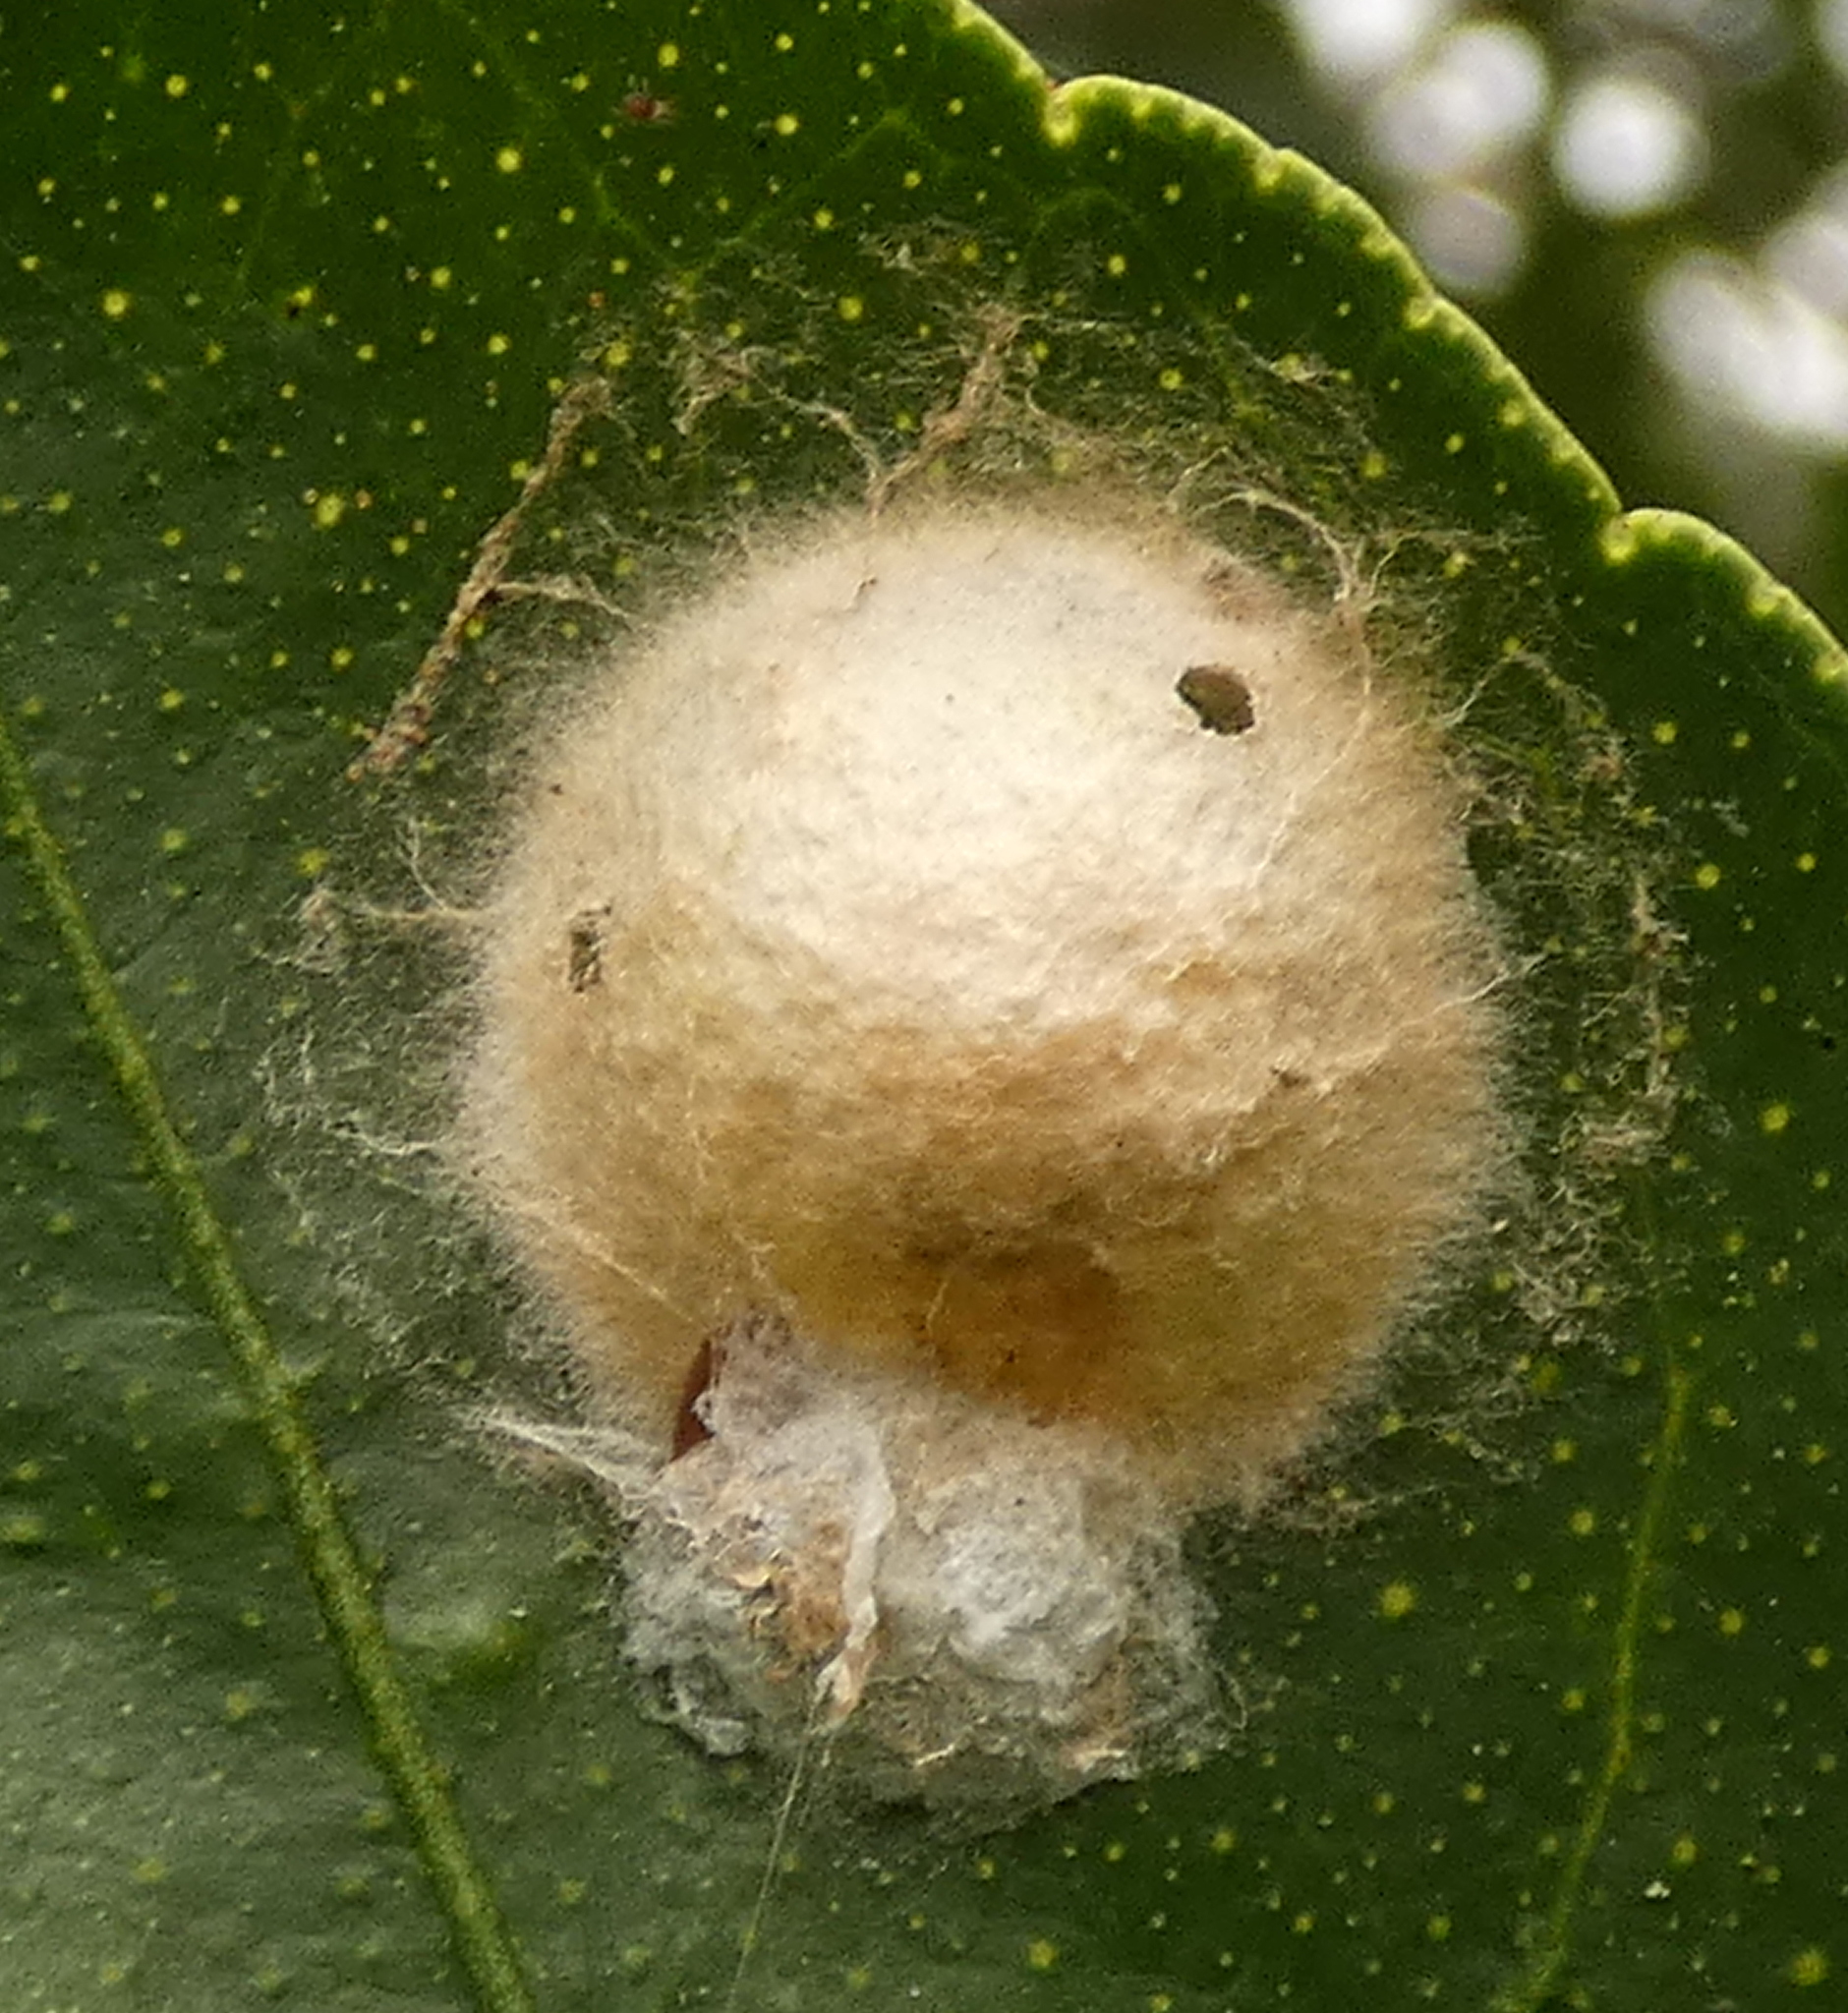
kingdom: Animalia
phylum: Arthropoda
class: Arachnida
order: Araneae
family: Araneidae
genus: Alpaida
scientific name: Alpaida bicornuta
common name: Orb weavers
